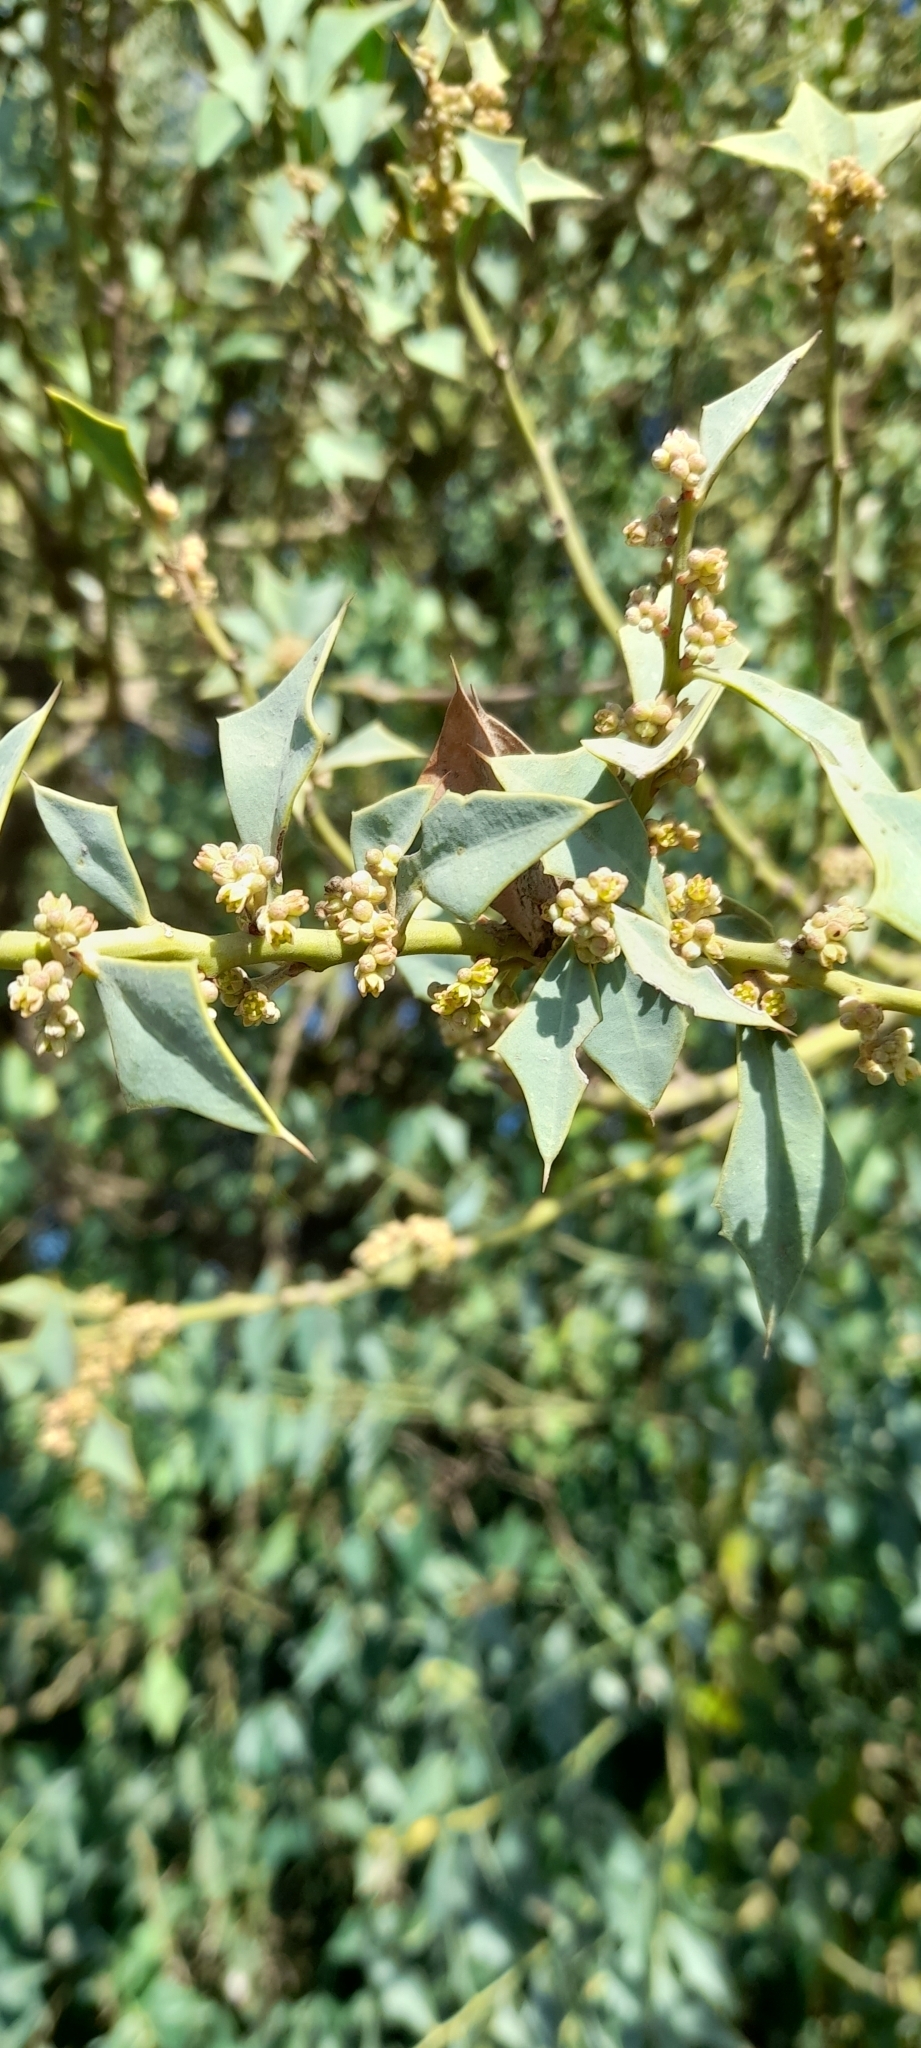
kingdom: Plantae
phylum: Tracheophyta
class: Magnoliopsida
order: Santalales
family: Cervantesiaceae
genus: Jodina
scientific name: Jodina rhombifolia
